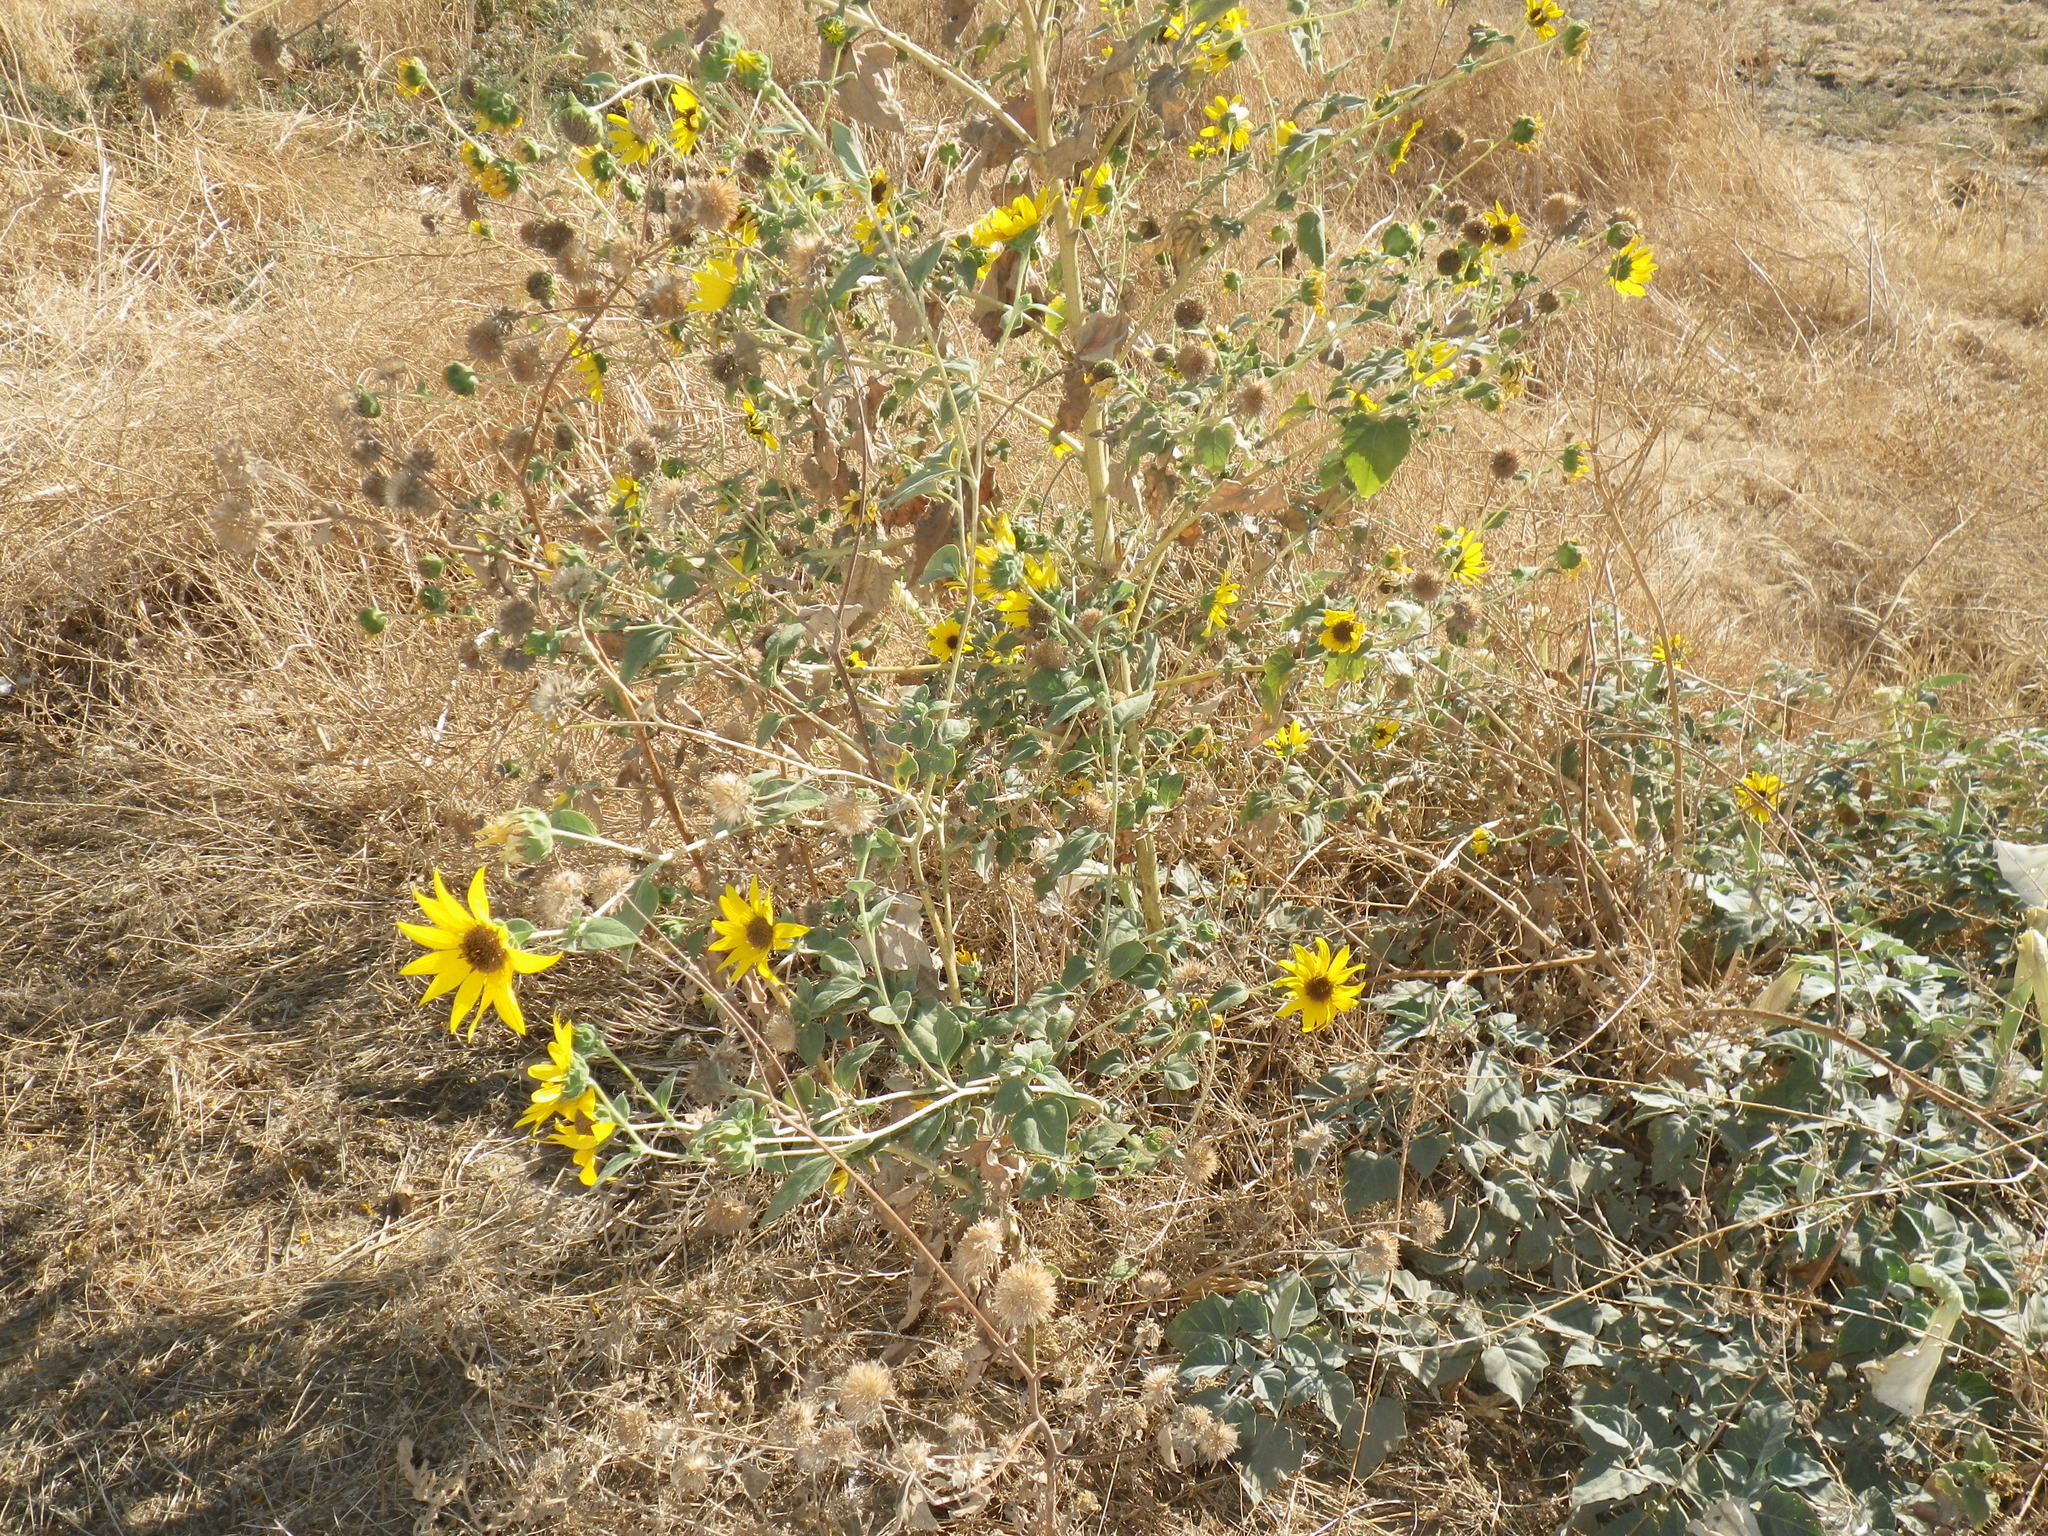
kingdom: Plantae
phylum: Tracheophyta
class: Magnoliopsida
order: Asterales
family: Asteraceae
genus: Helianthus
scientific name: Helianthus annuus
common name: Sunflower
